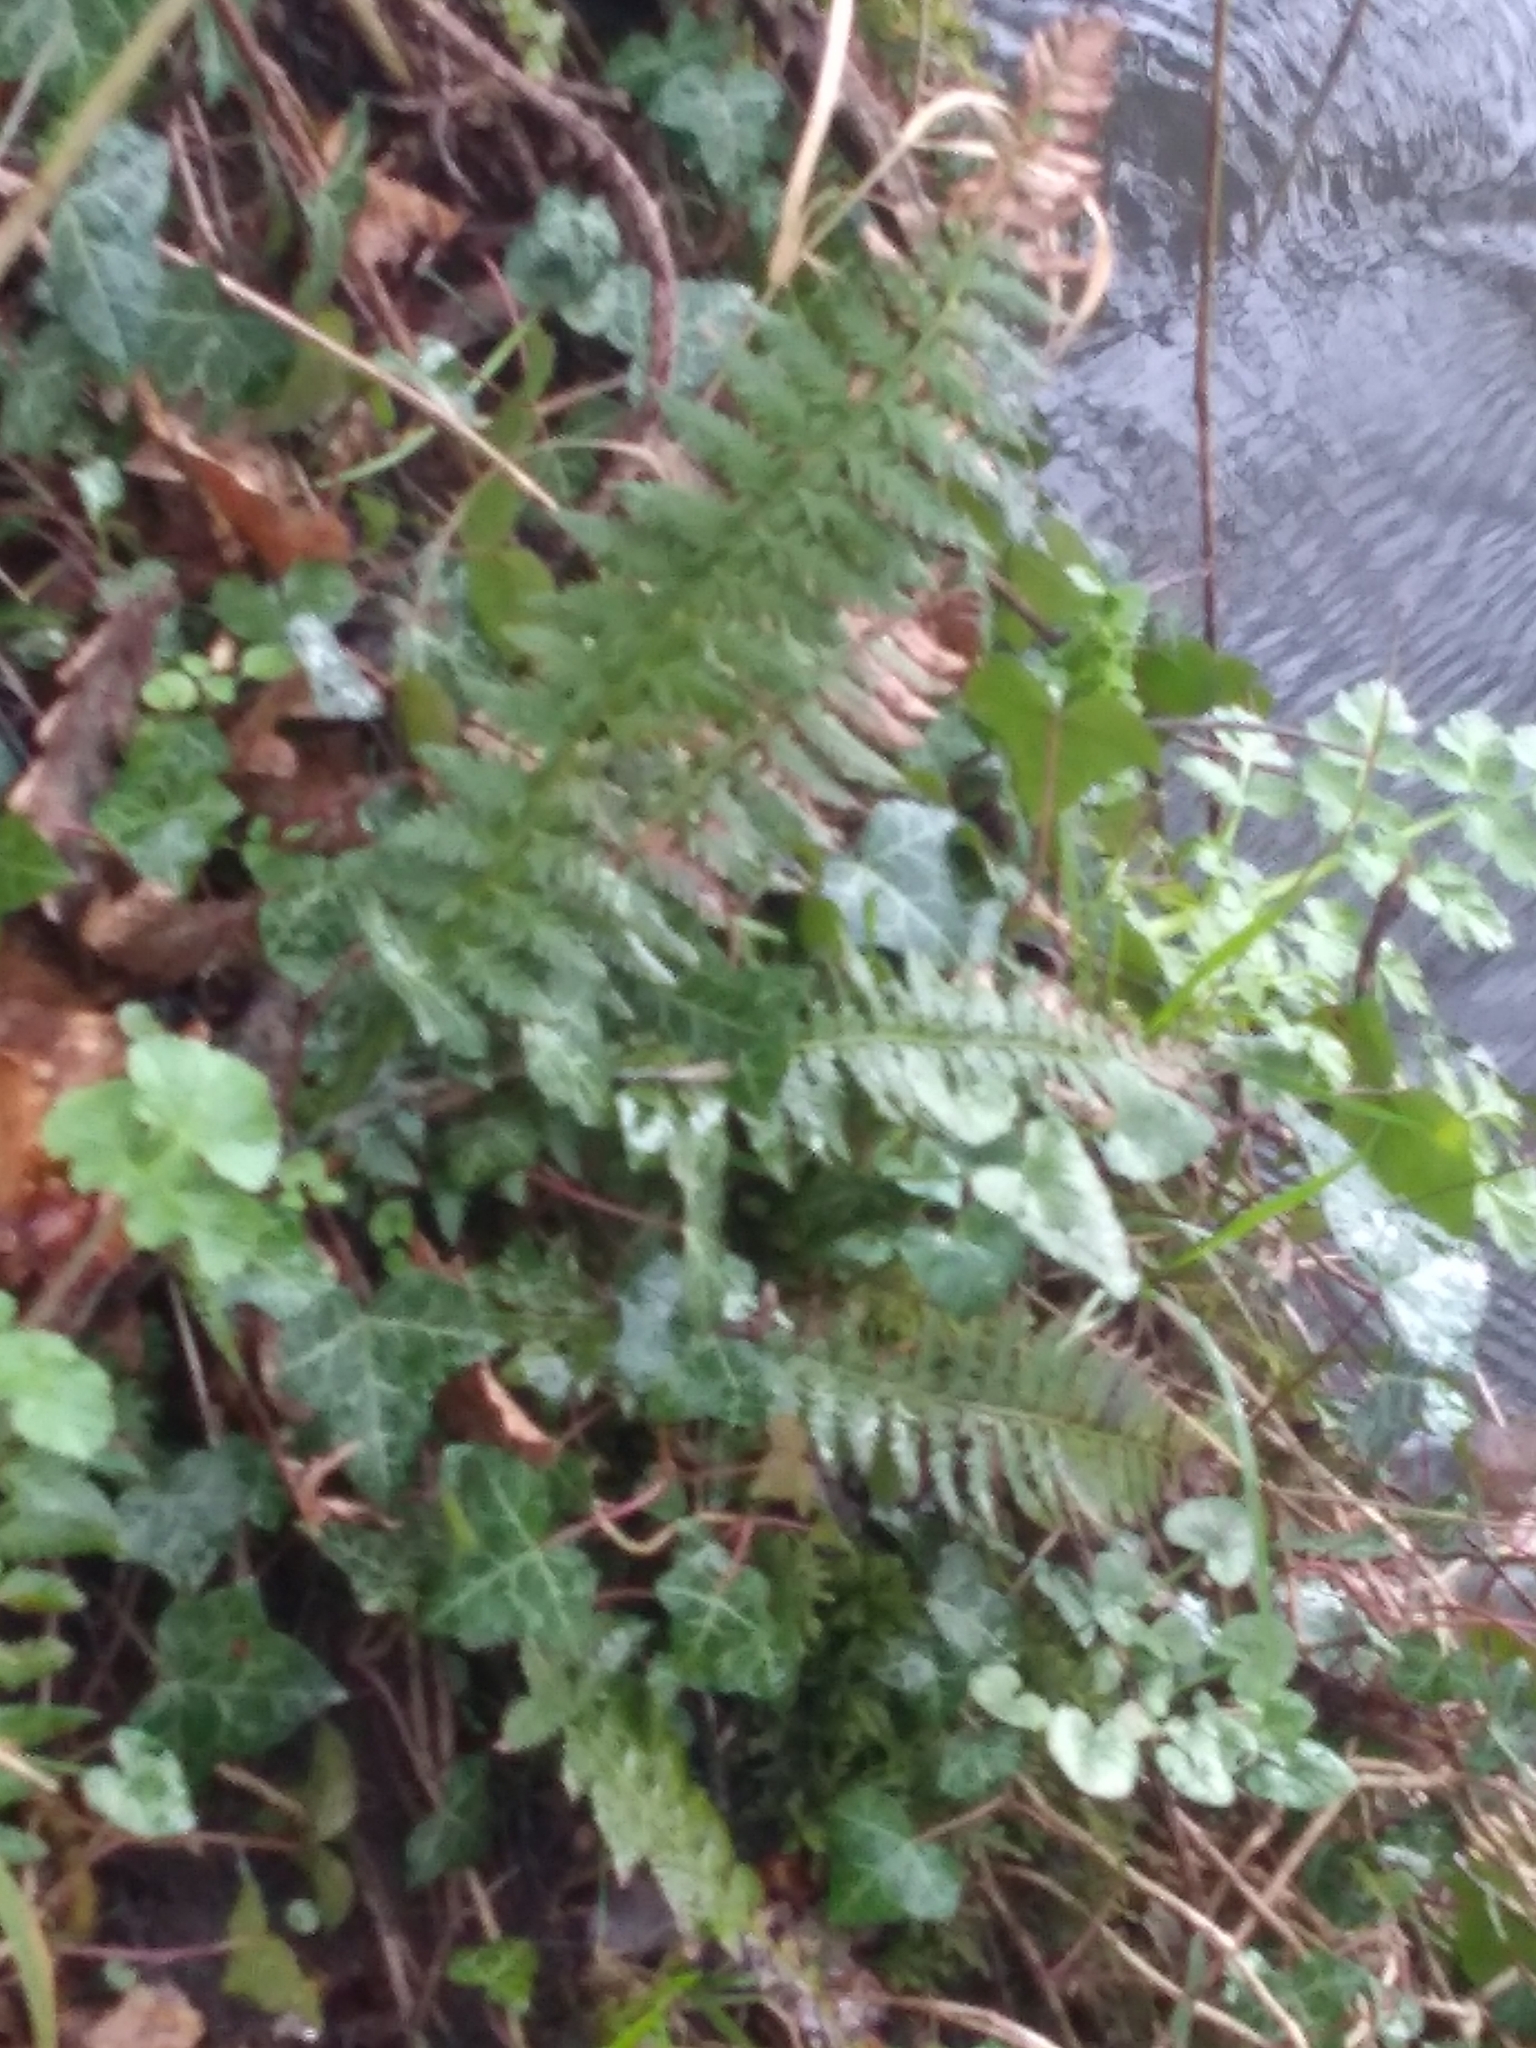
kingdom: Plantae
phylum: Tracheophyta
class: Polypodiopsida
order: Polypodiales
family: Dryopteridaceae
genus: Polystichum
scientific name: Polystichum aculeatum
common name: Hard shield-fern
